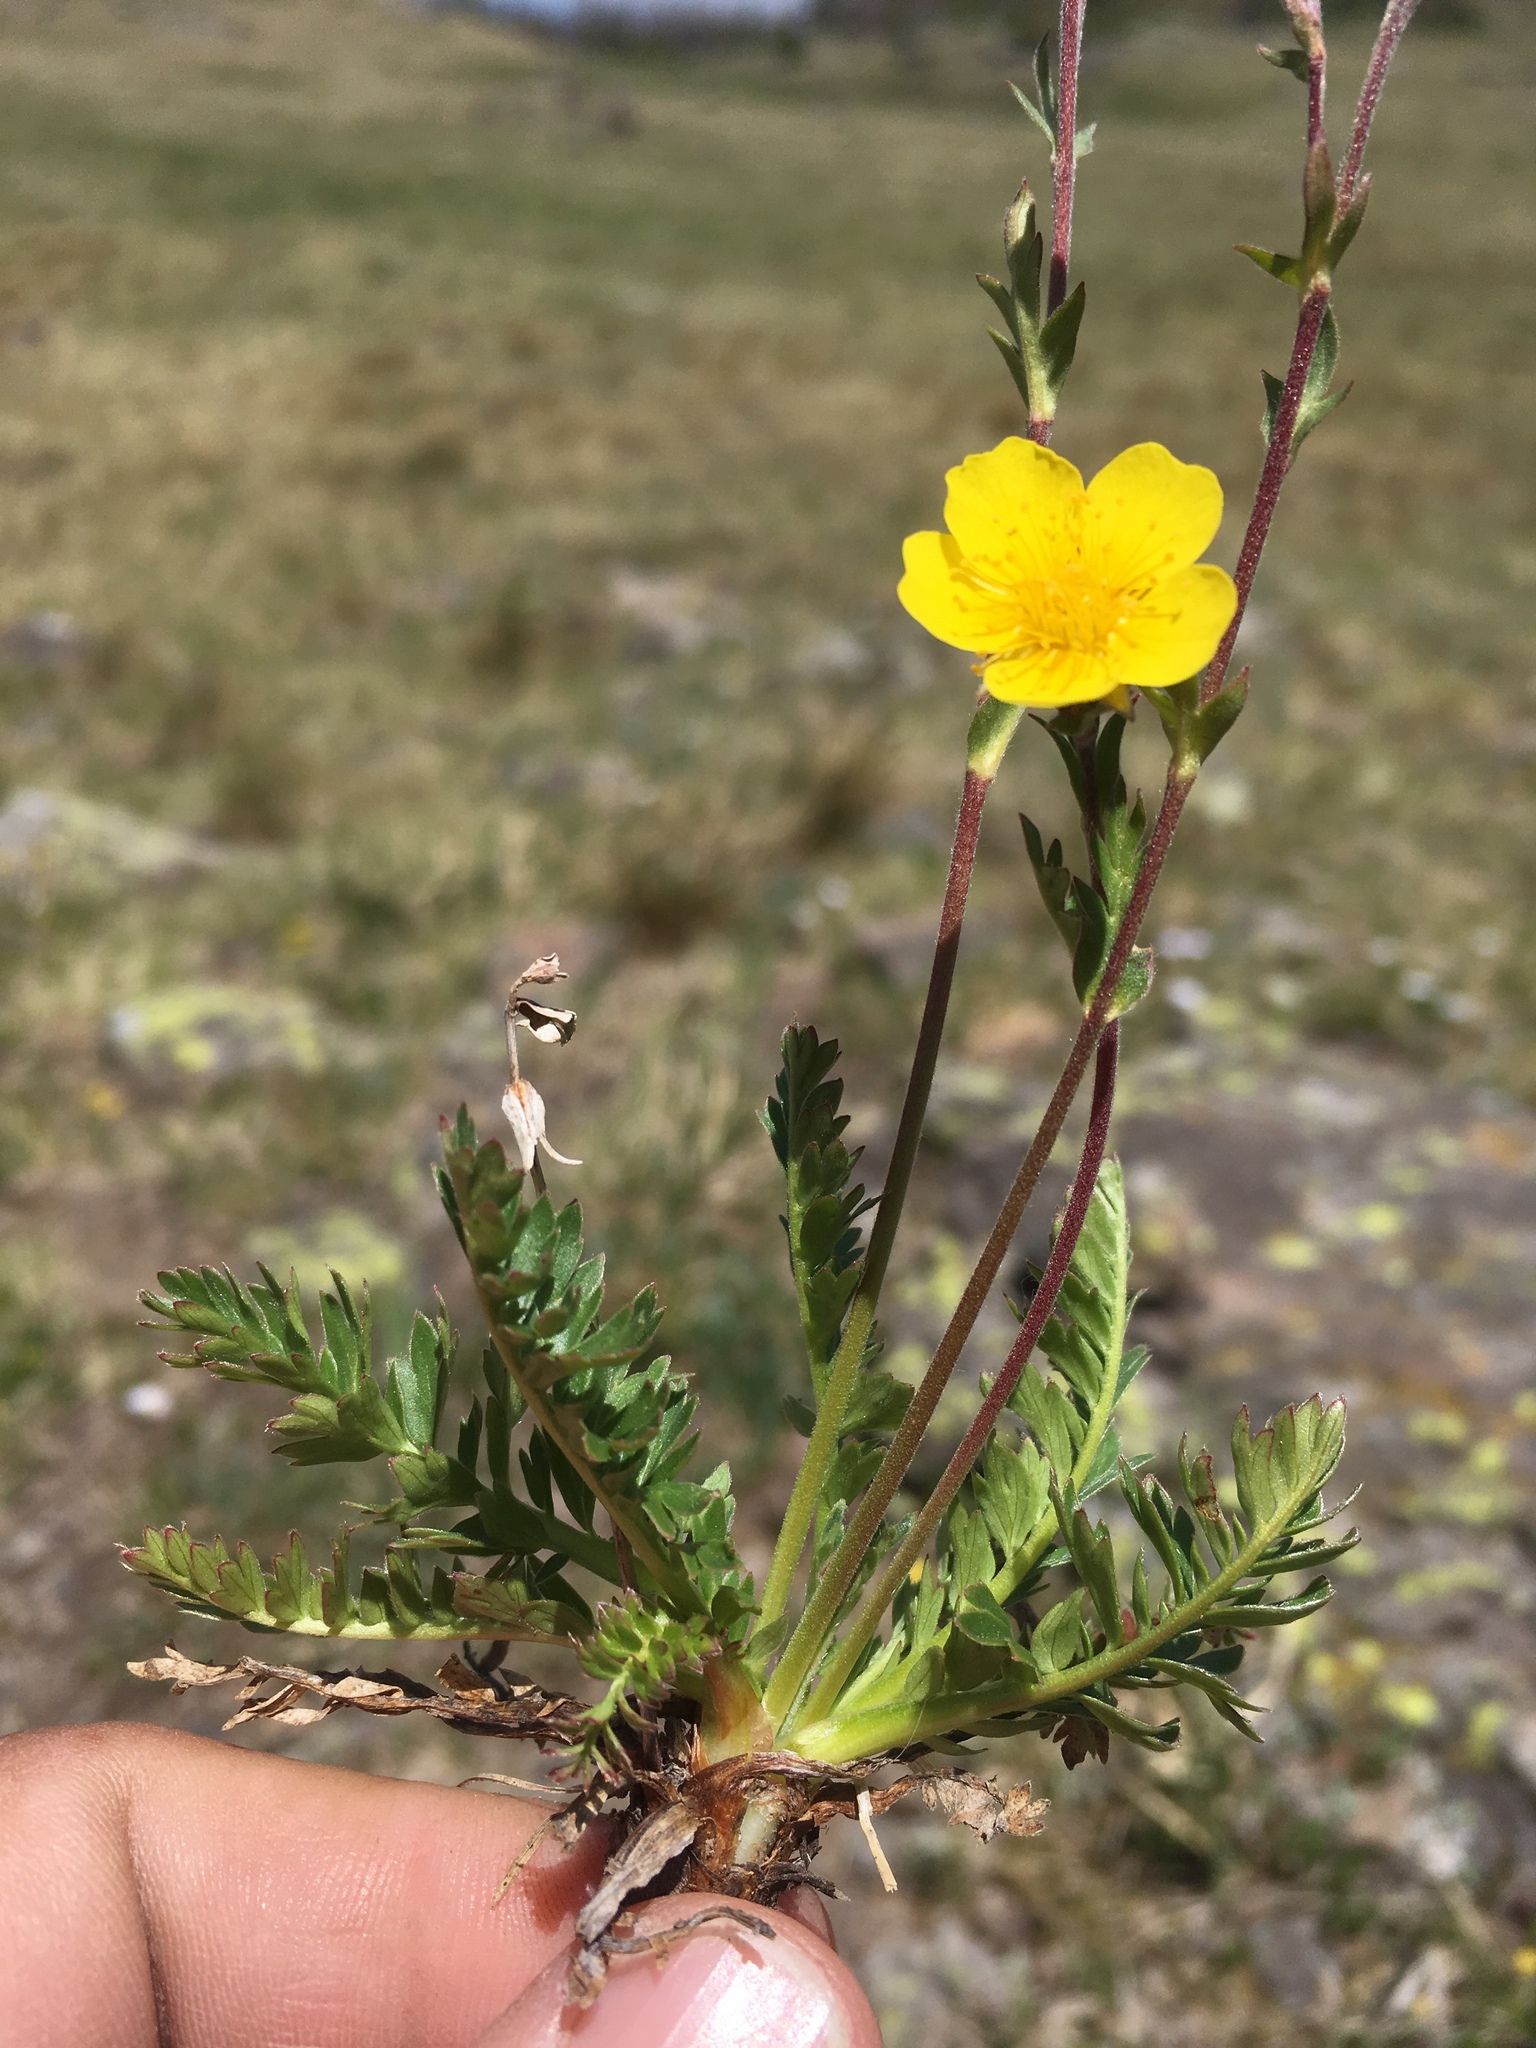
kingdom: Plantae
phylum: Tracheophyta
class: Magnoliopsida
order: Rosales
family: Rosaceae
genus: Geum
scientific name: Geum rossii
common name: Alpine avens
